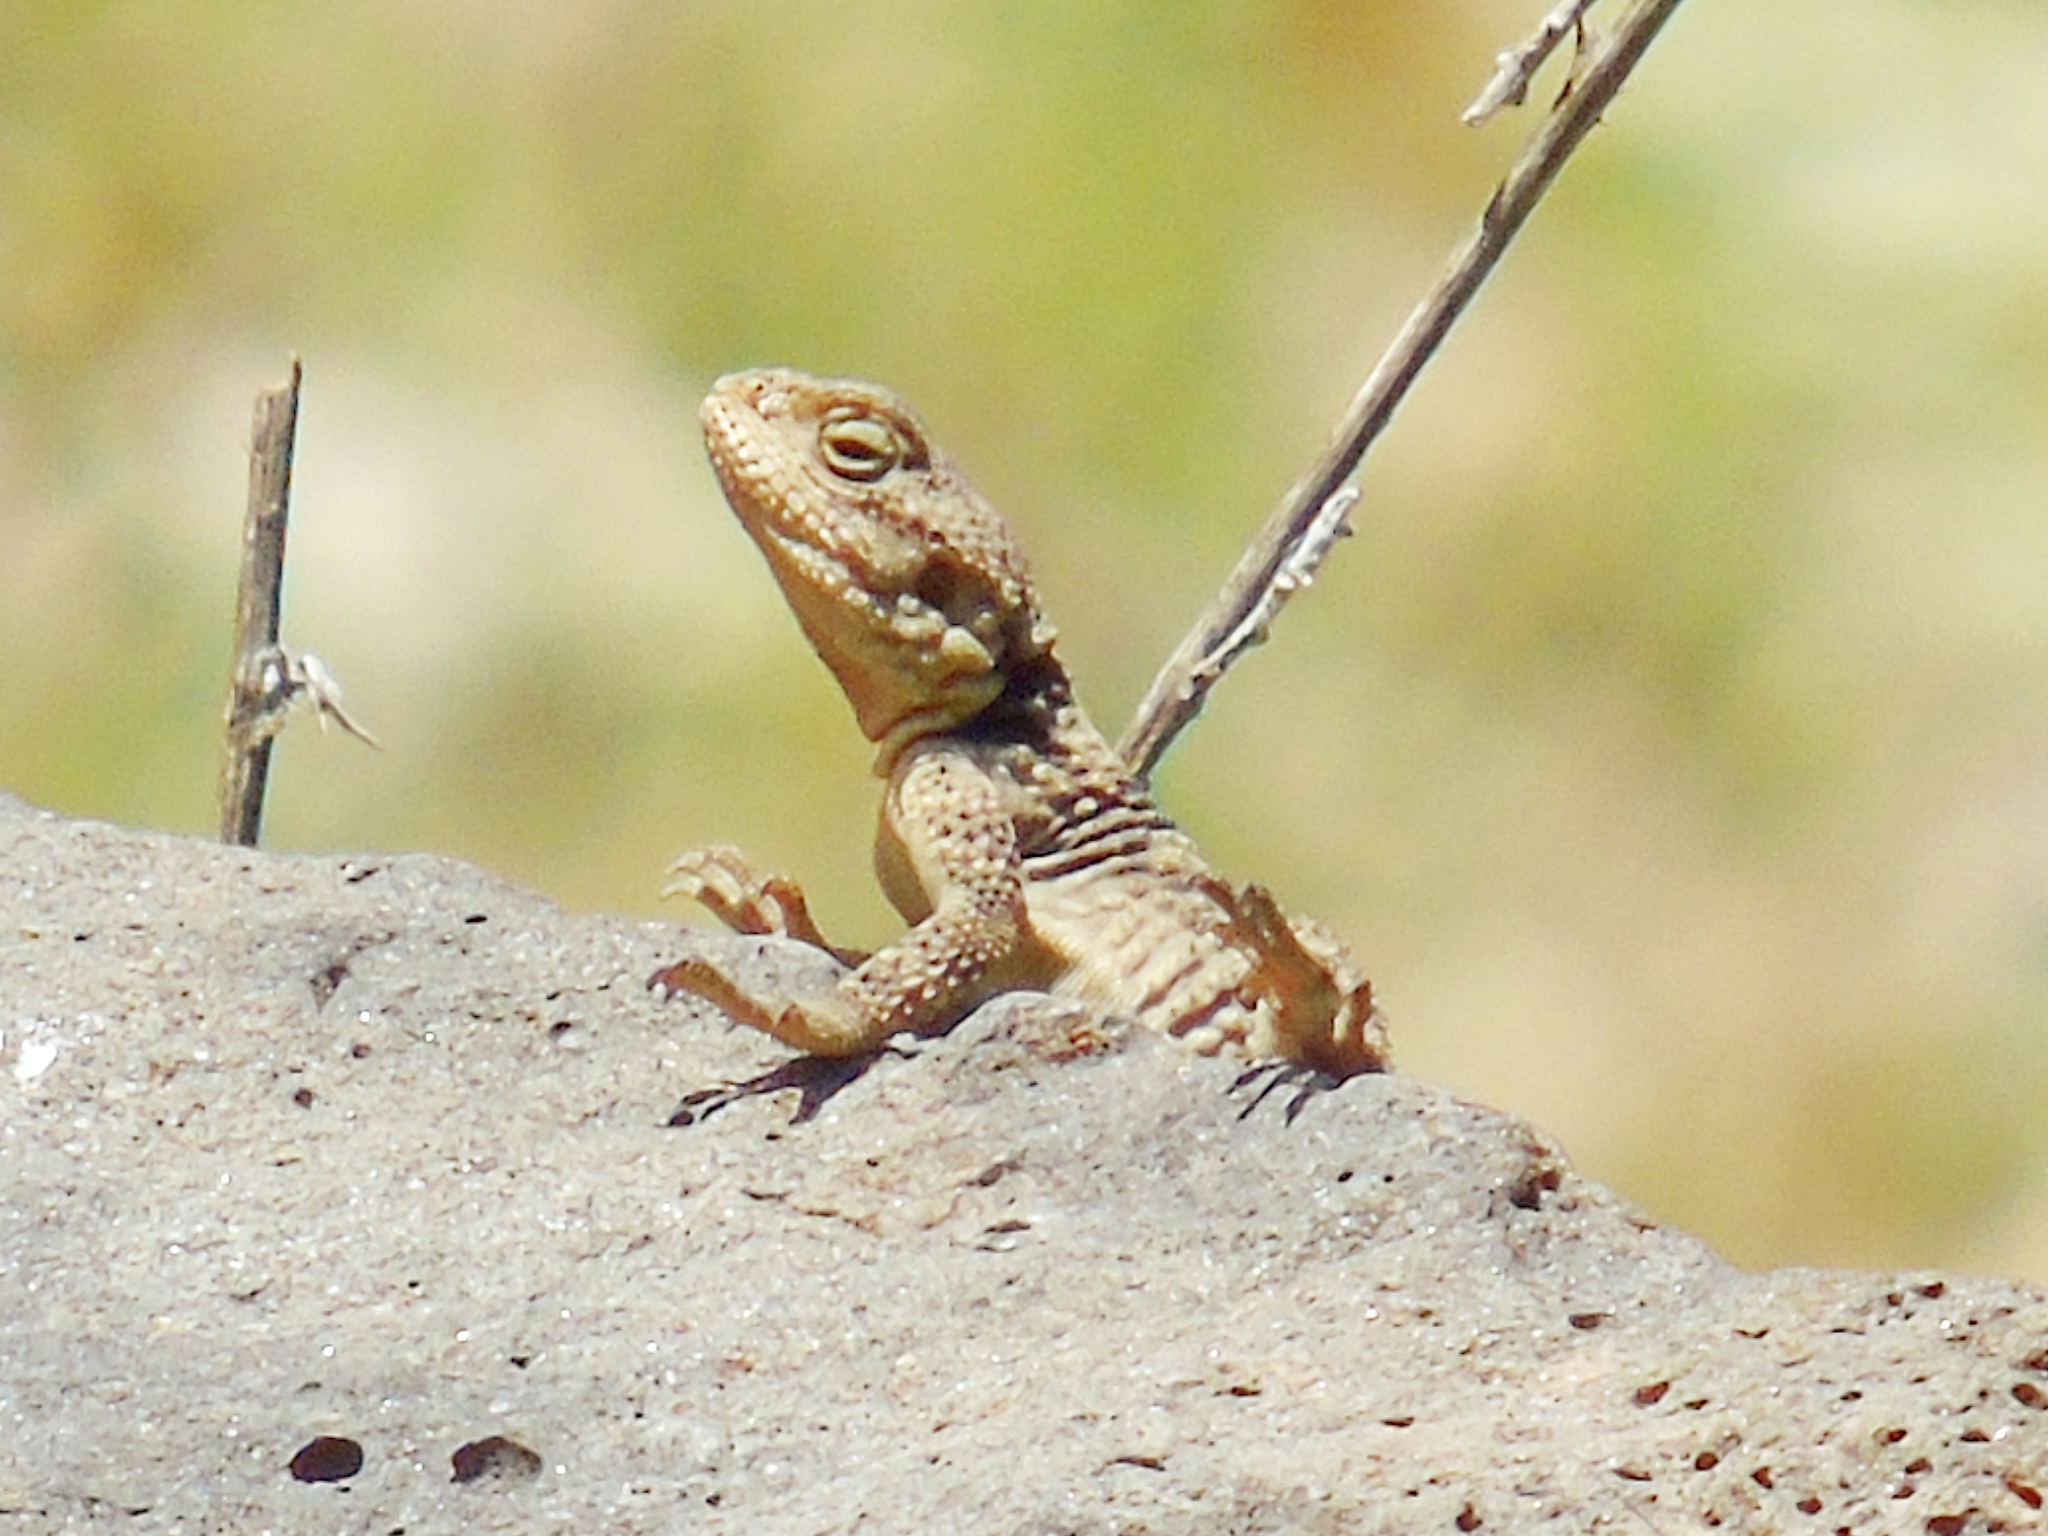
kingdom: Animalia
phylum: Chordata
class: Squamata
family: Agamidae
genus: Stellagama
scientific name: Stellagama stellio
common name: Starred agama
